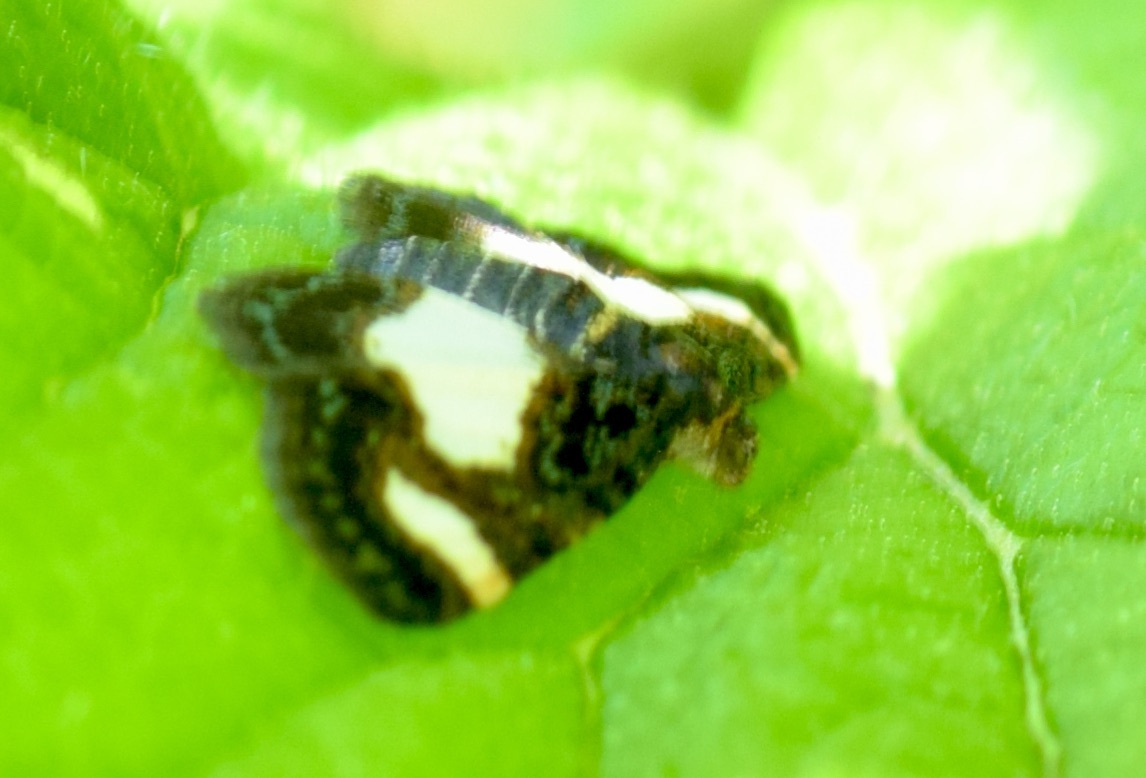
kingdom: Animalia
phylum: Arthropoda
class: Insecta
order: Lepidoptera
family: Geometridae
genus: Heliomata
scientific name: Heliomata cycladata
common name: Common spring moth
